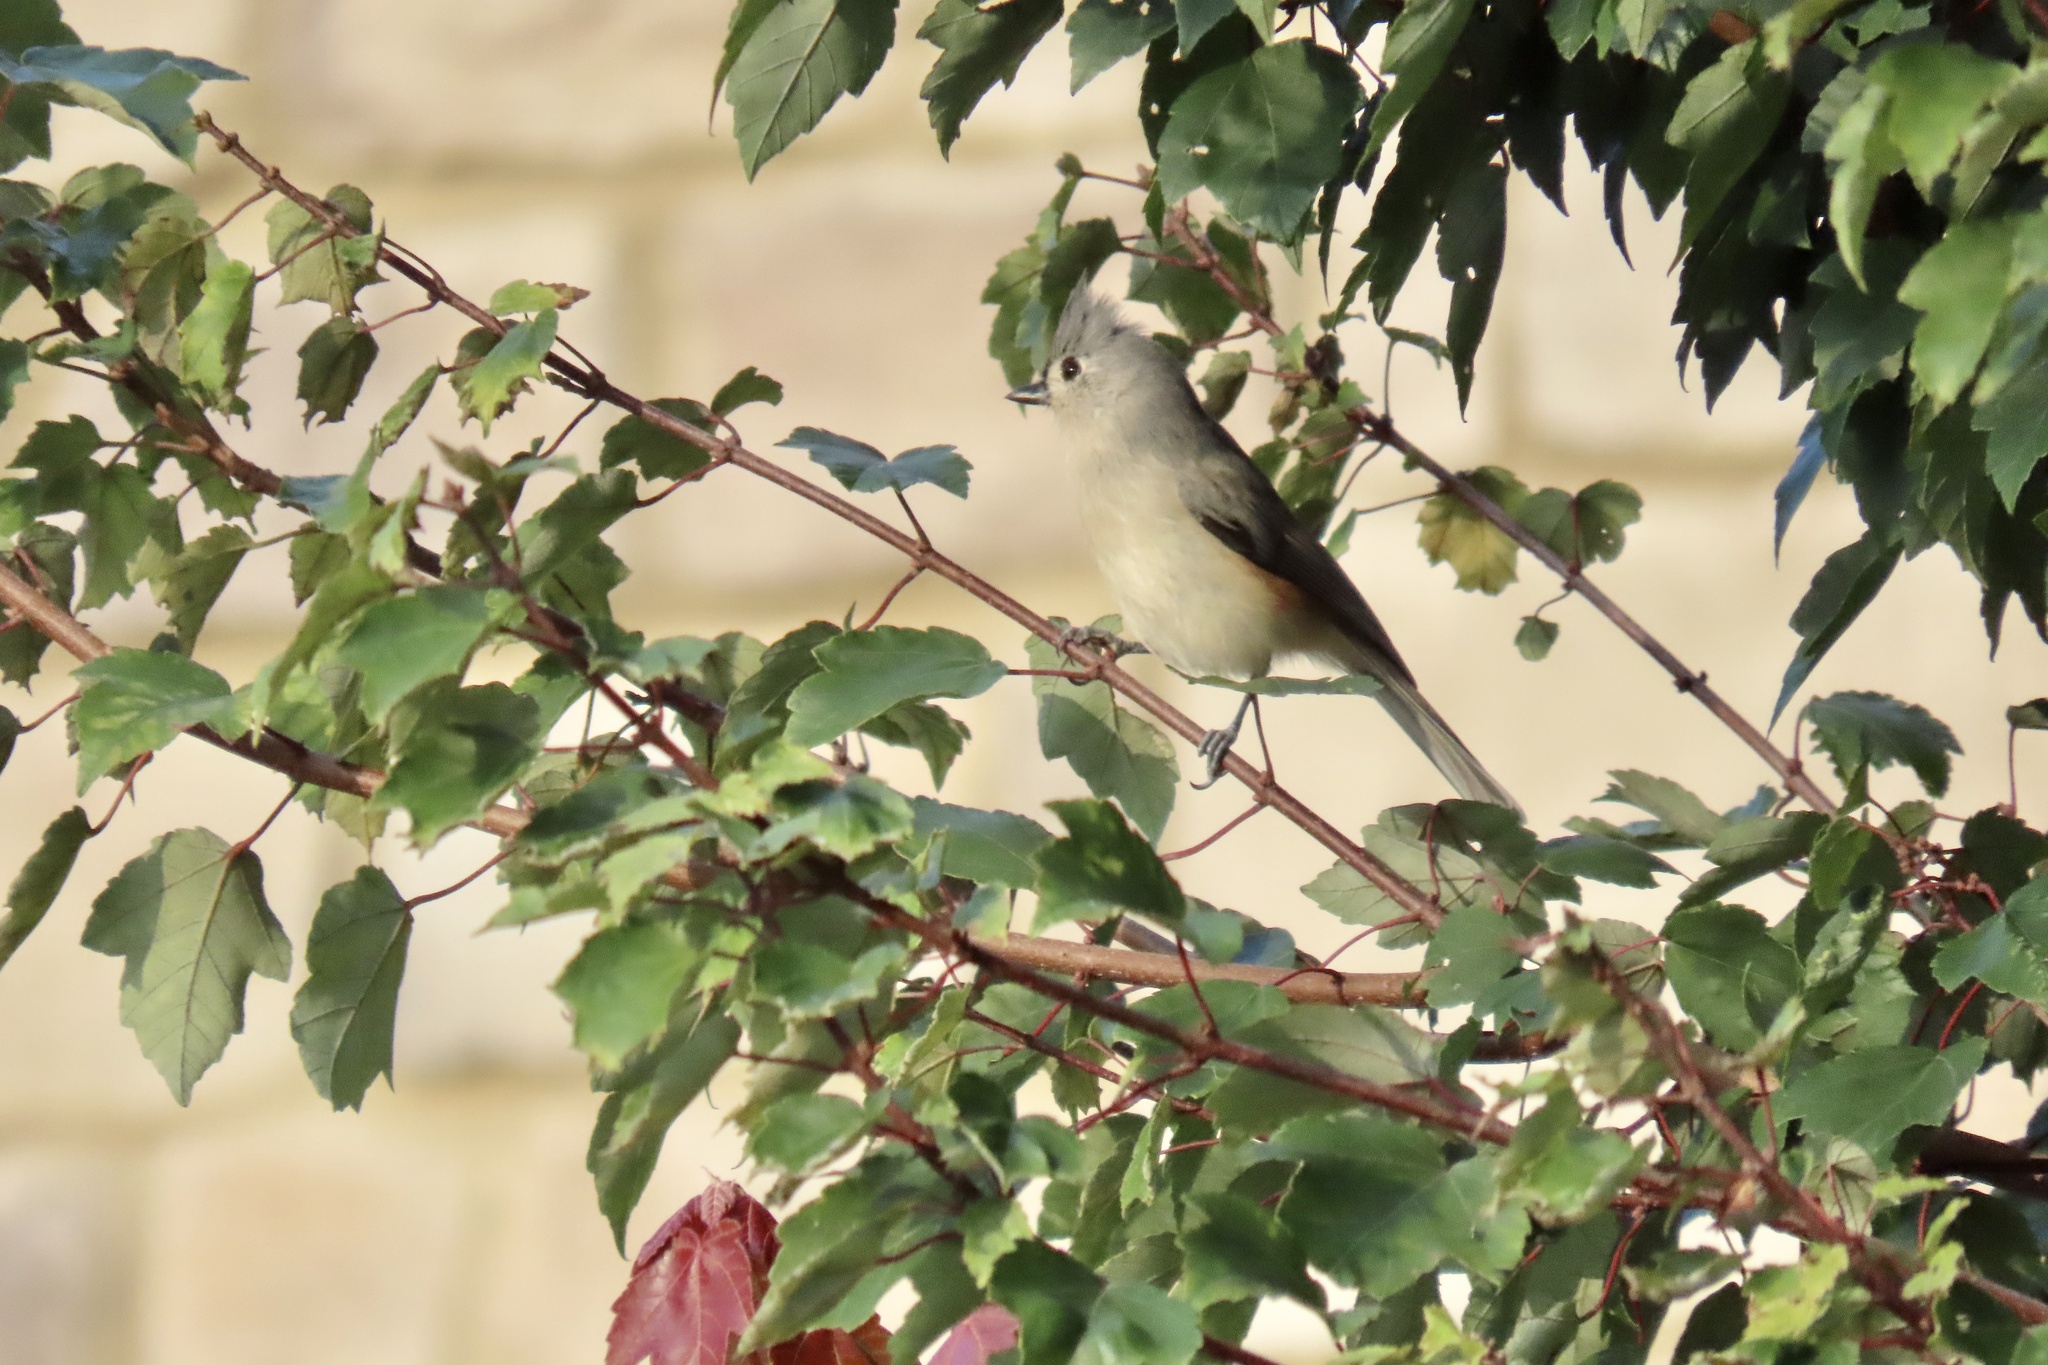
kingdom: Animalia
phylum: Chordata
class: Aves
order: Passeriformes
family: Paridae
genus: Baeolophus
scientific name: Baeolophus bicolor
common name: Tufted titmouse
